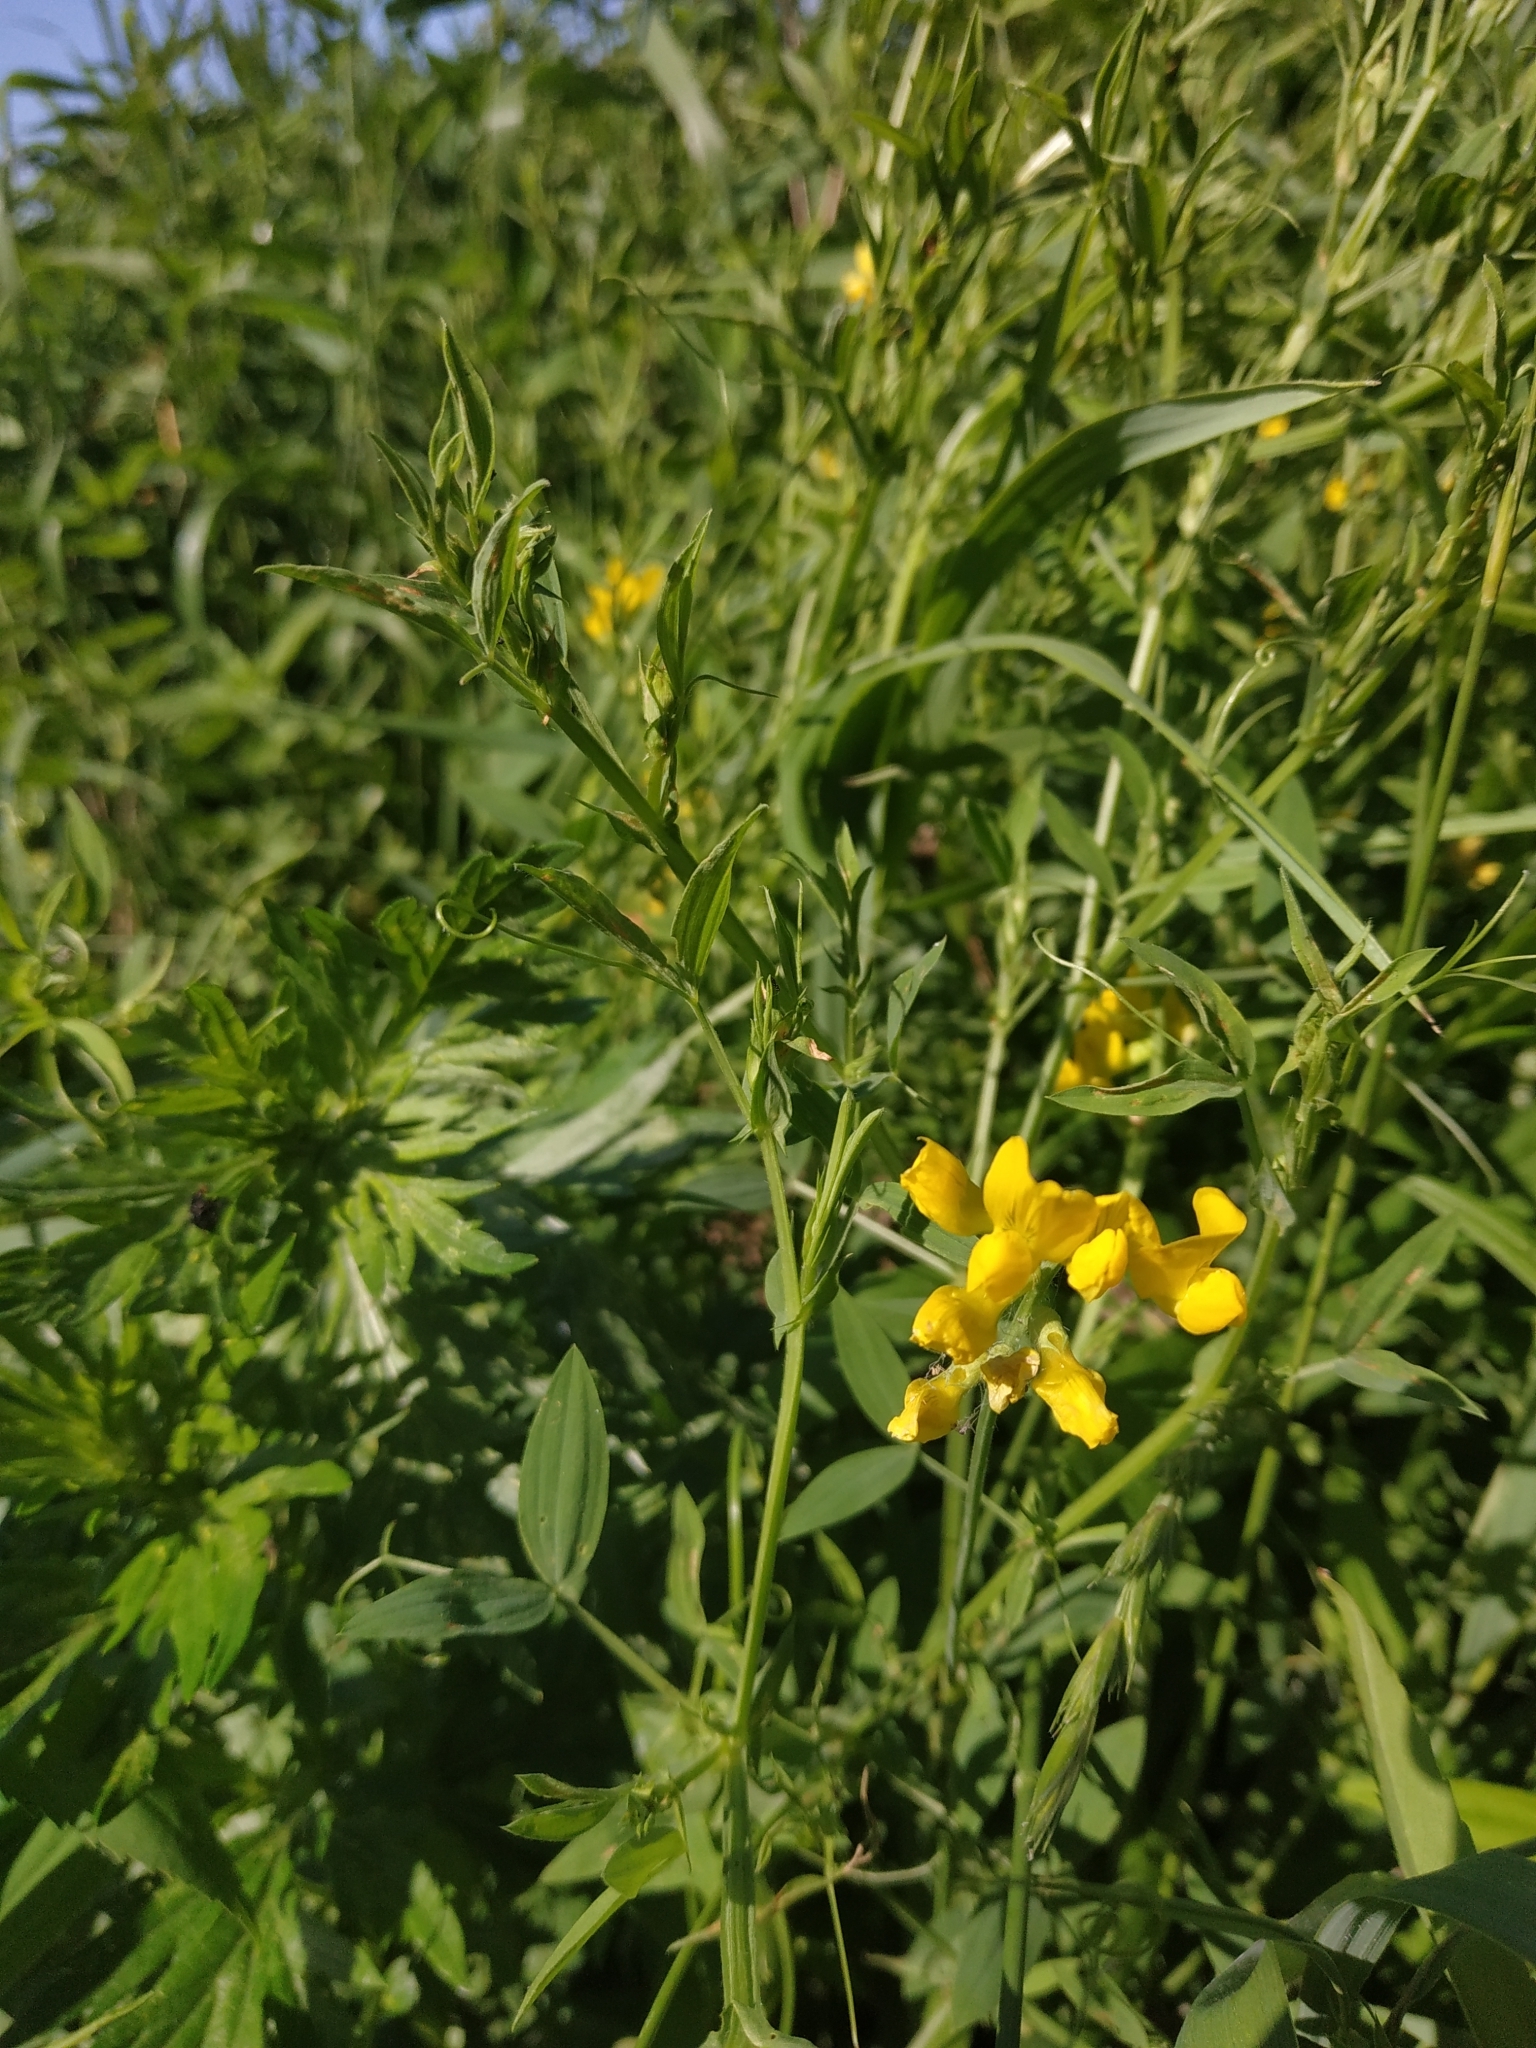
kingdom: Plantae
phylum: Tracheophyta
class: Magnoliopsida
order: Fabales
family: Fabaceae
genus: Lathyrus
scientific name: Lathyrus pratensis
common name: Meadow vetchling
